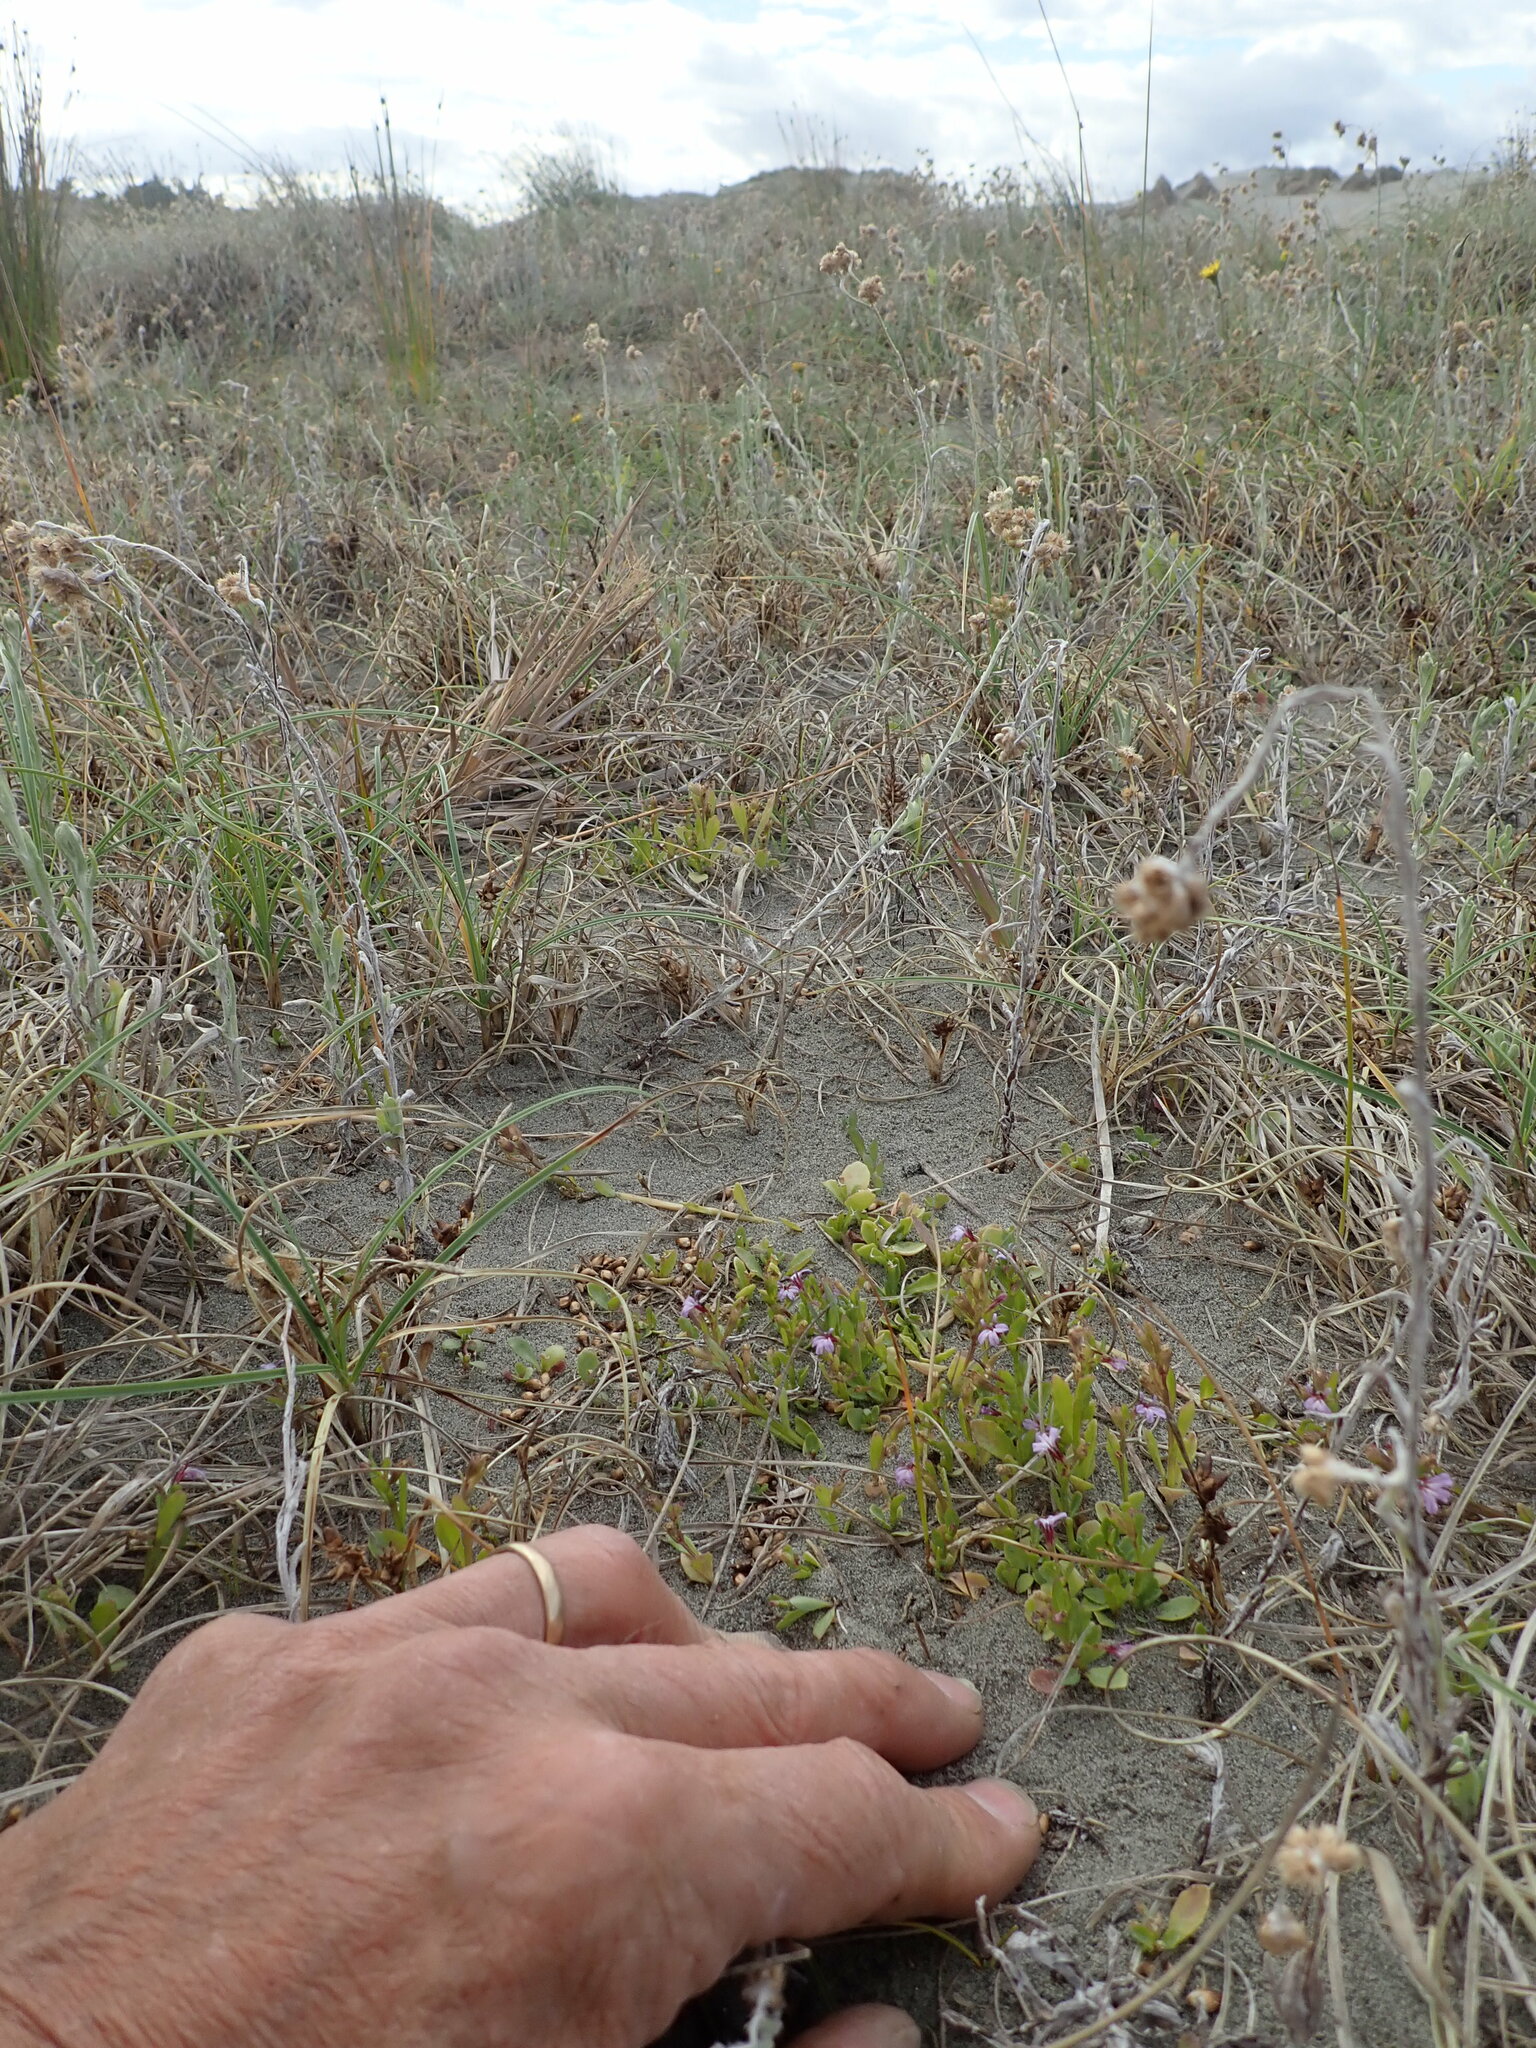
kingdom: Plantae
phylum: Tracheophyta
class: Magnoliopsida
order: Asterales
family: Campanulaceae
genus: Lobelia
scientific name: Lobelia anceps
